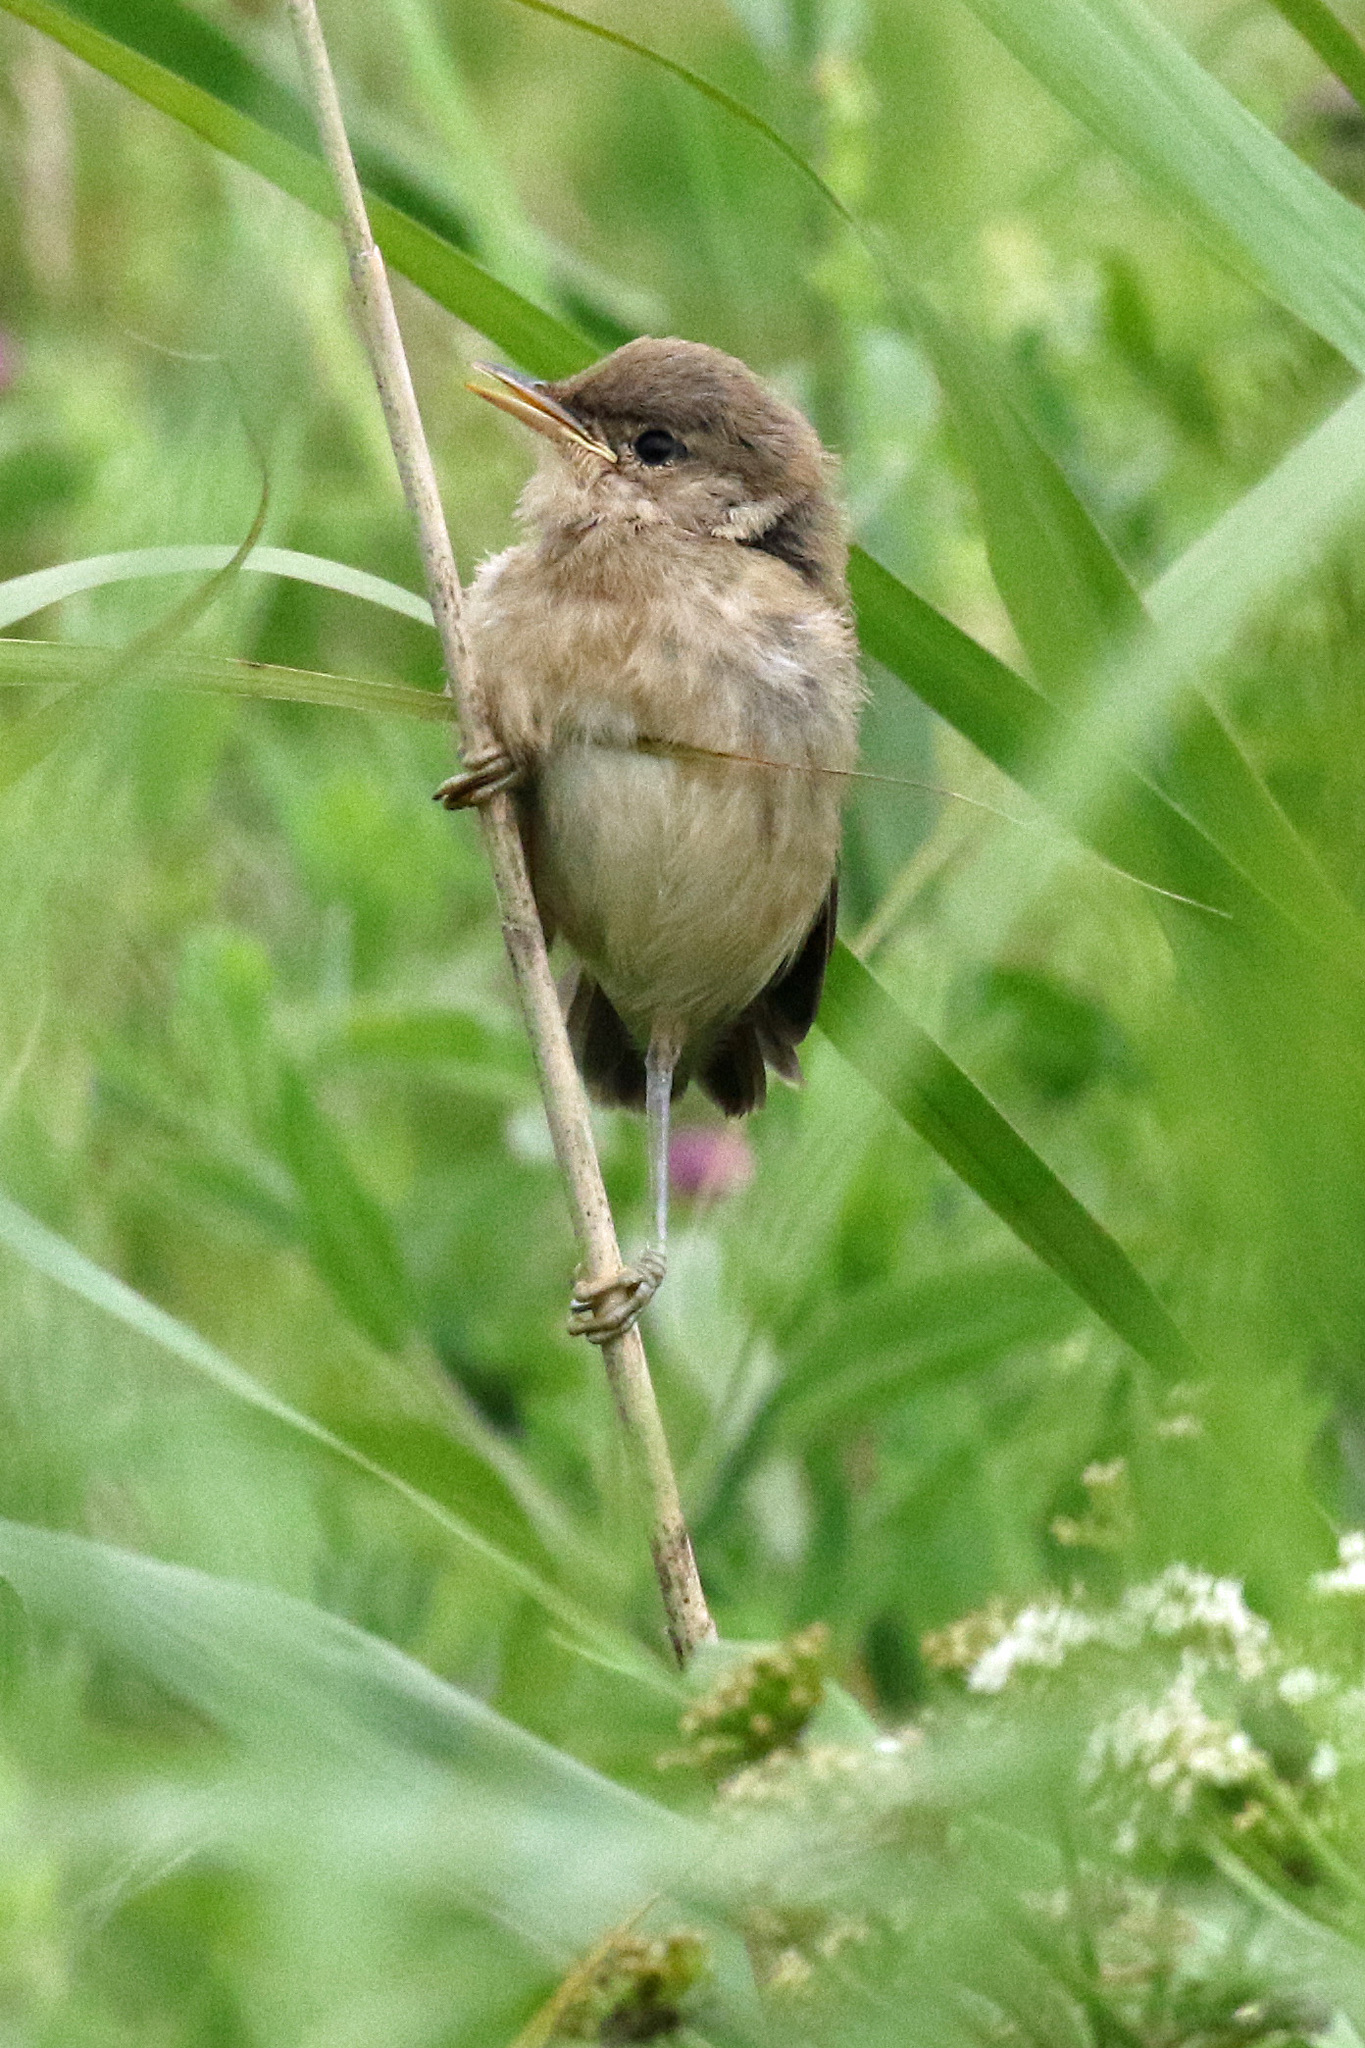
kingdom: Animalia
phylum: Chordata
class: Aves
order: Passeriformes
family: Acrocephalidae
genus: Acrocephalus
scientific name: Acrocephalus scirpaceus
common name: Eurasian reed warbler
